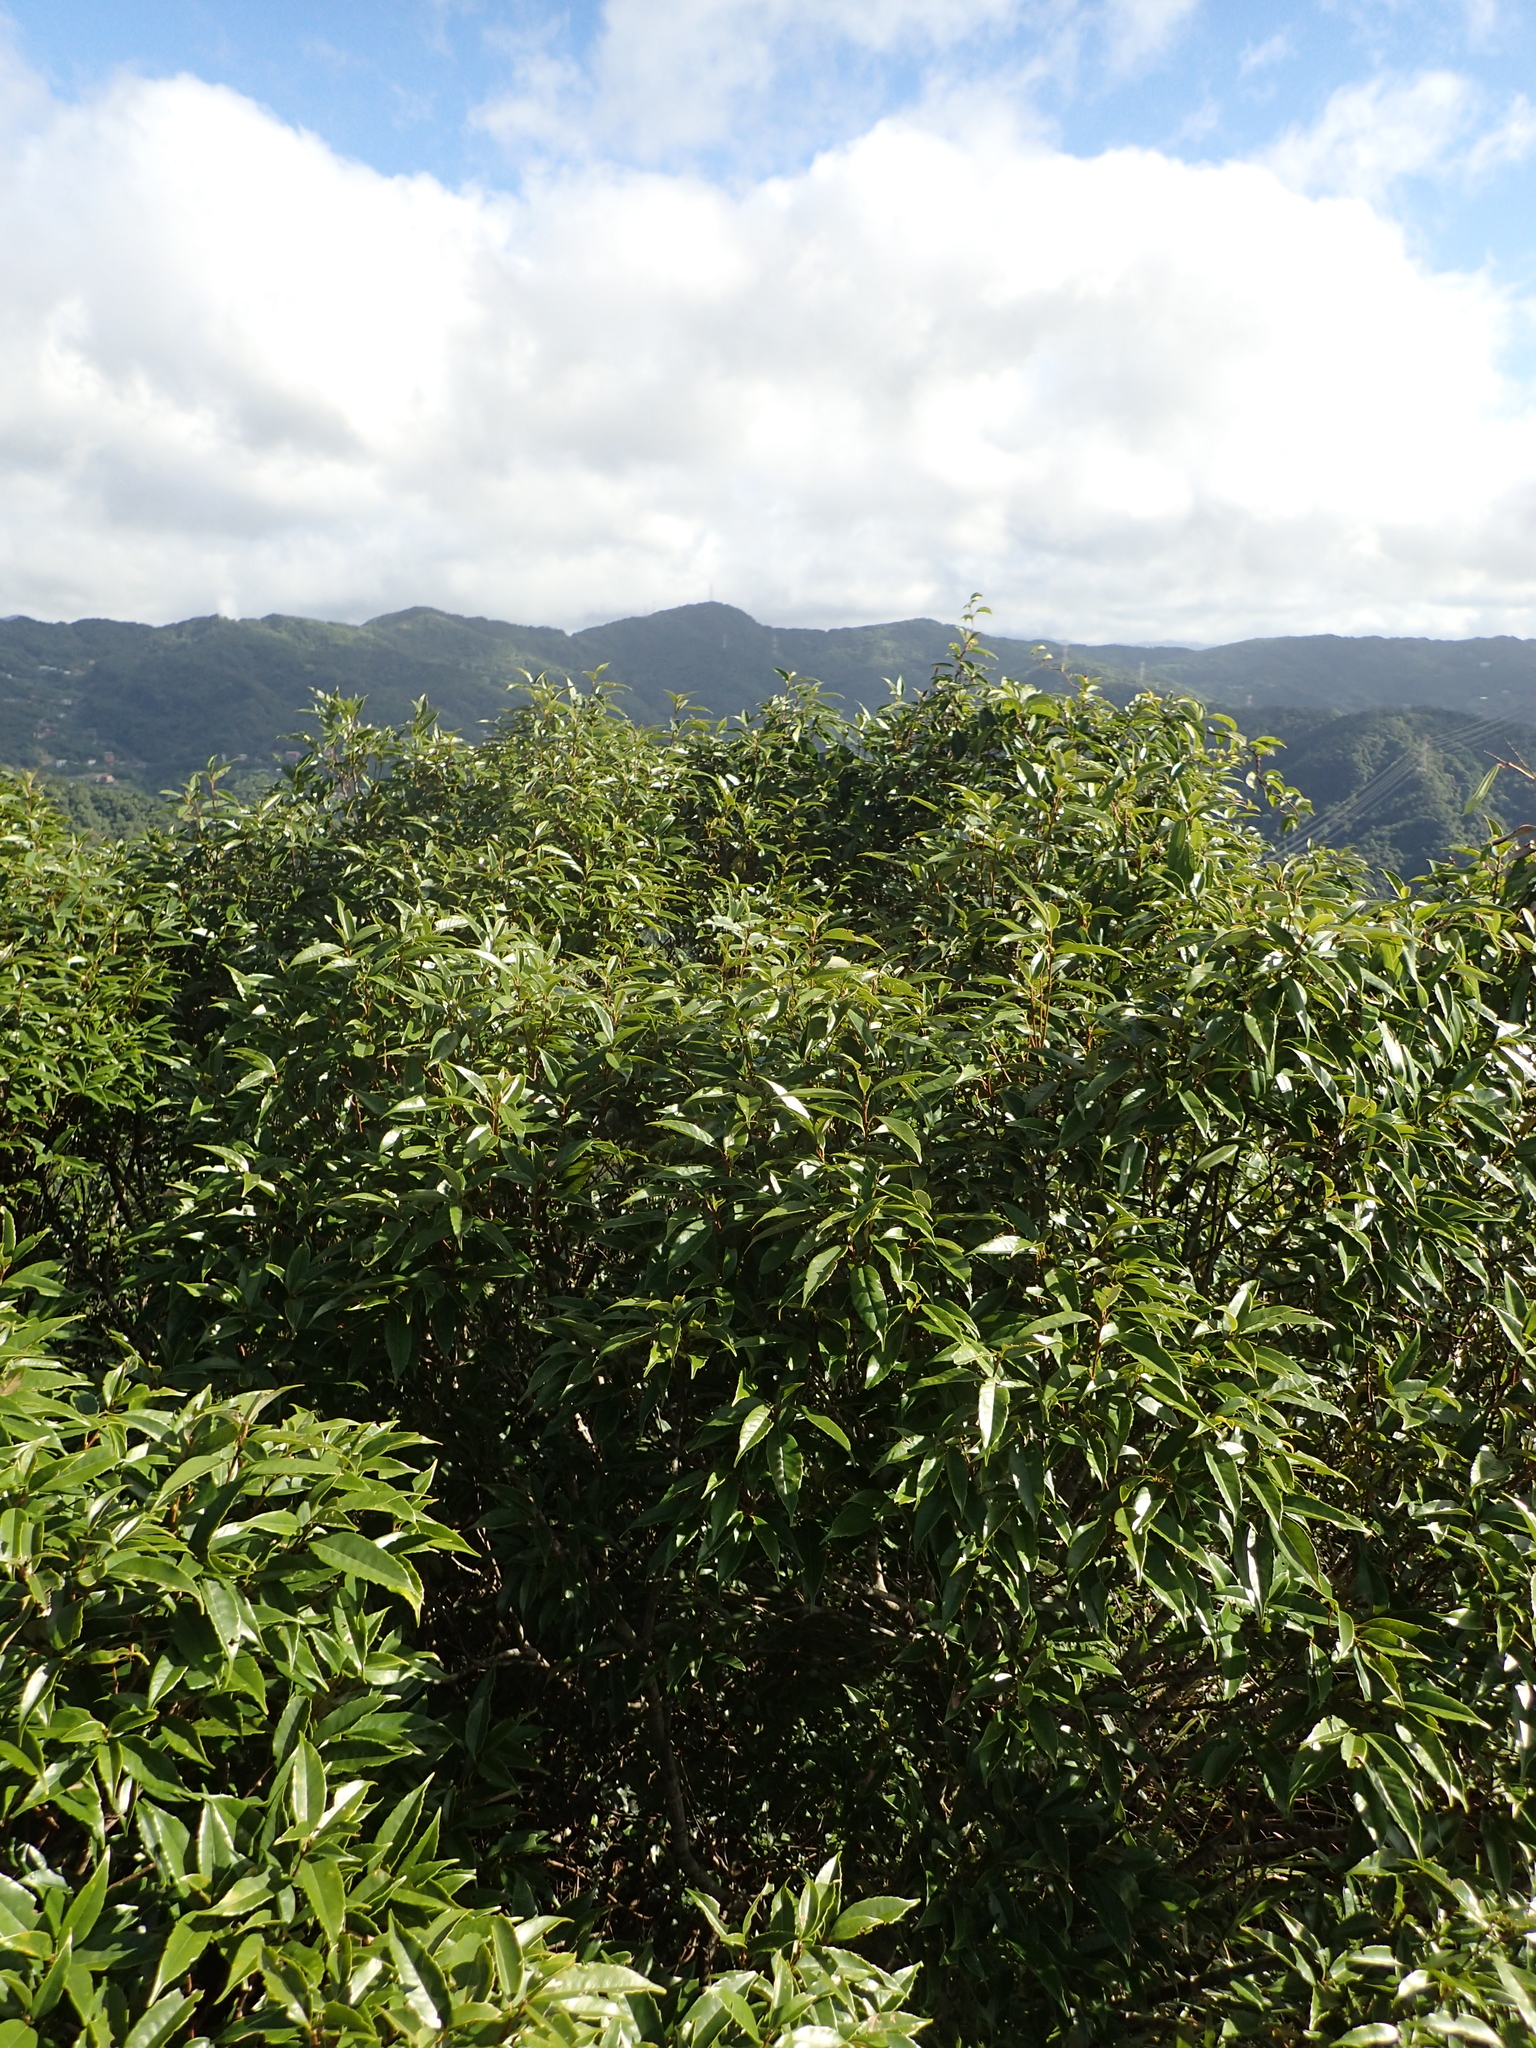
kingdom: Plantae
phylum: Tracheophyta
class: Magnoliopsida
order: Fagales
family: Fagaceae
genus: Quercus
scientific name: Quercus glauca
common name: Ring-cup oak
